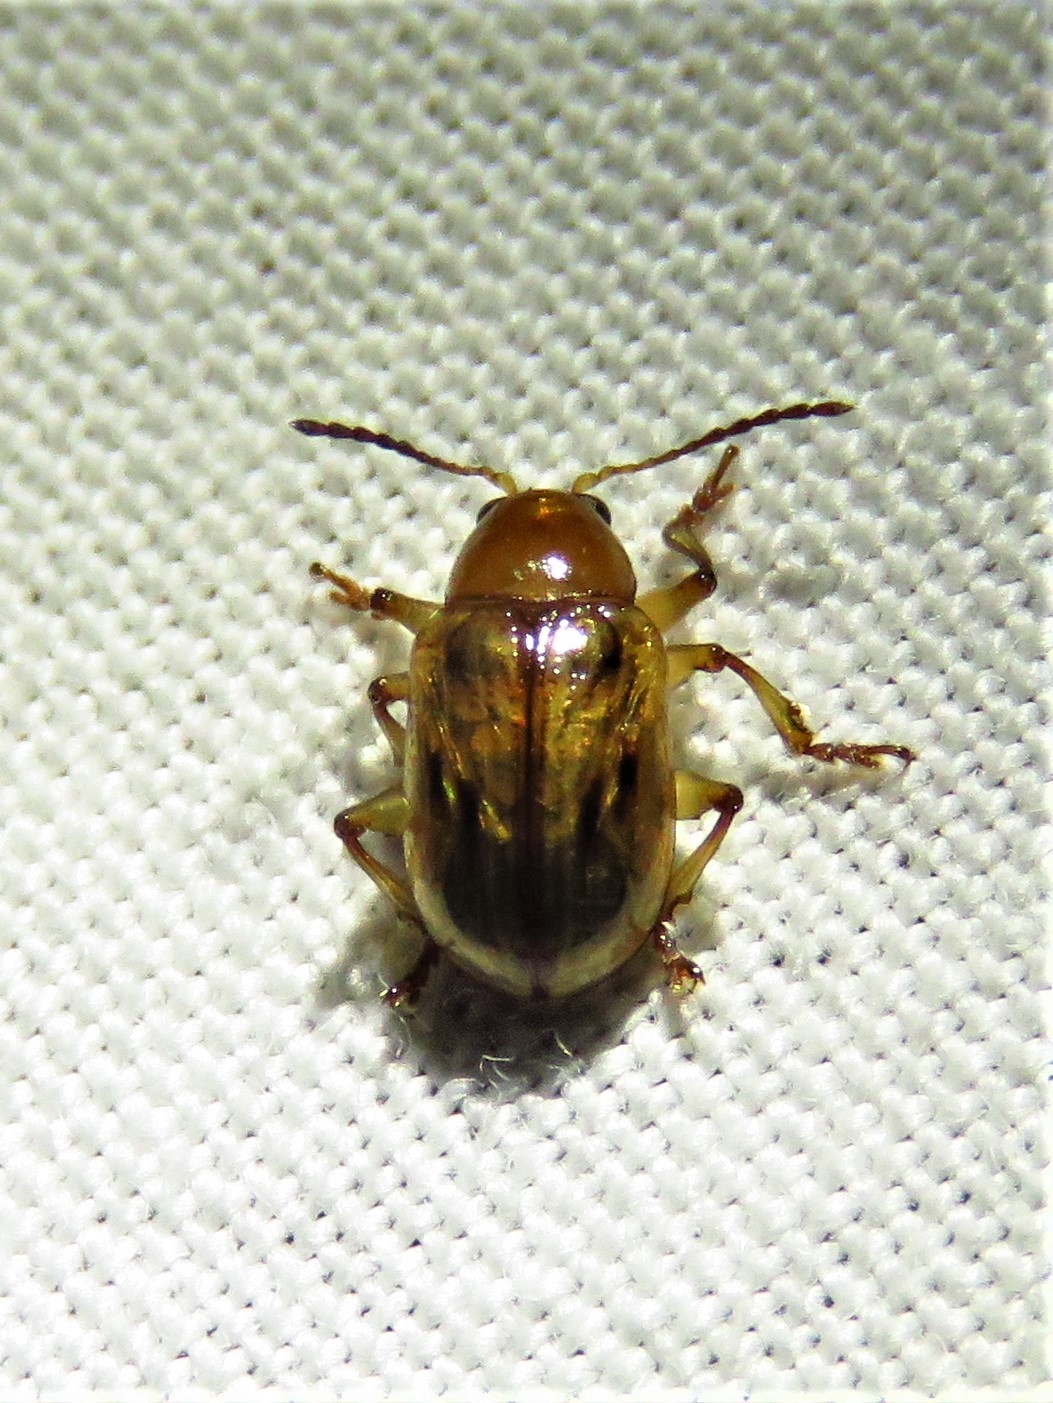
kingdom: Animalia
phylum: Arthropoda
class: Insecta
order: Coleoptera
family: Chrysomelidae
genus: Paria
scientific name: Paria quadriguttata
